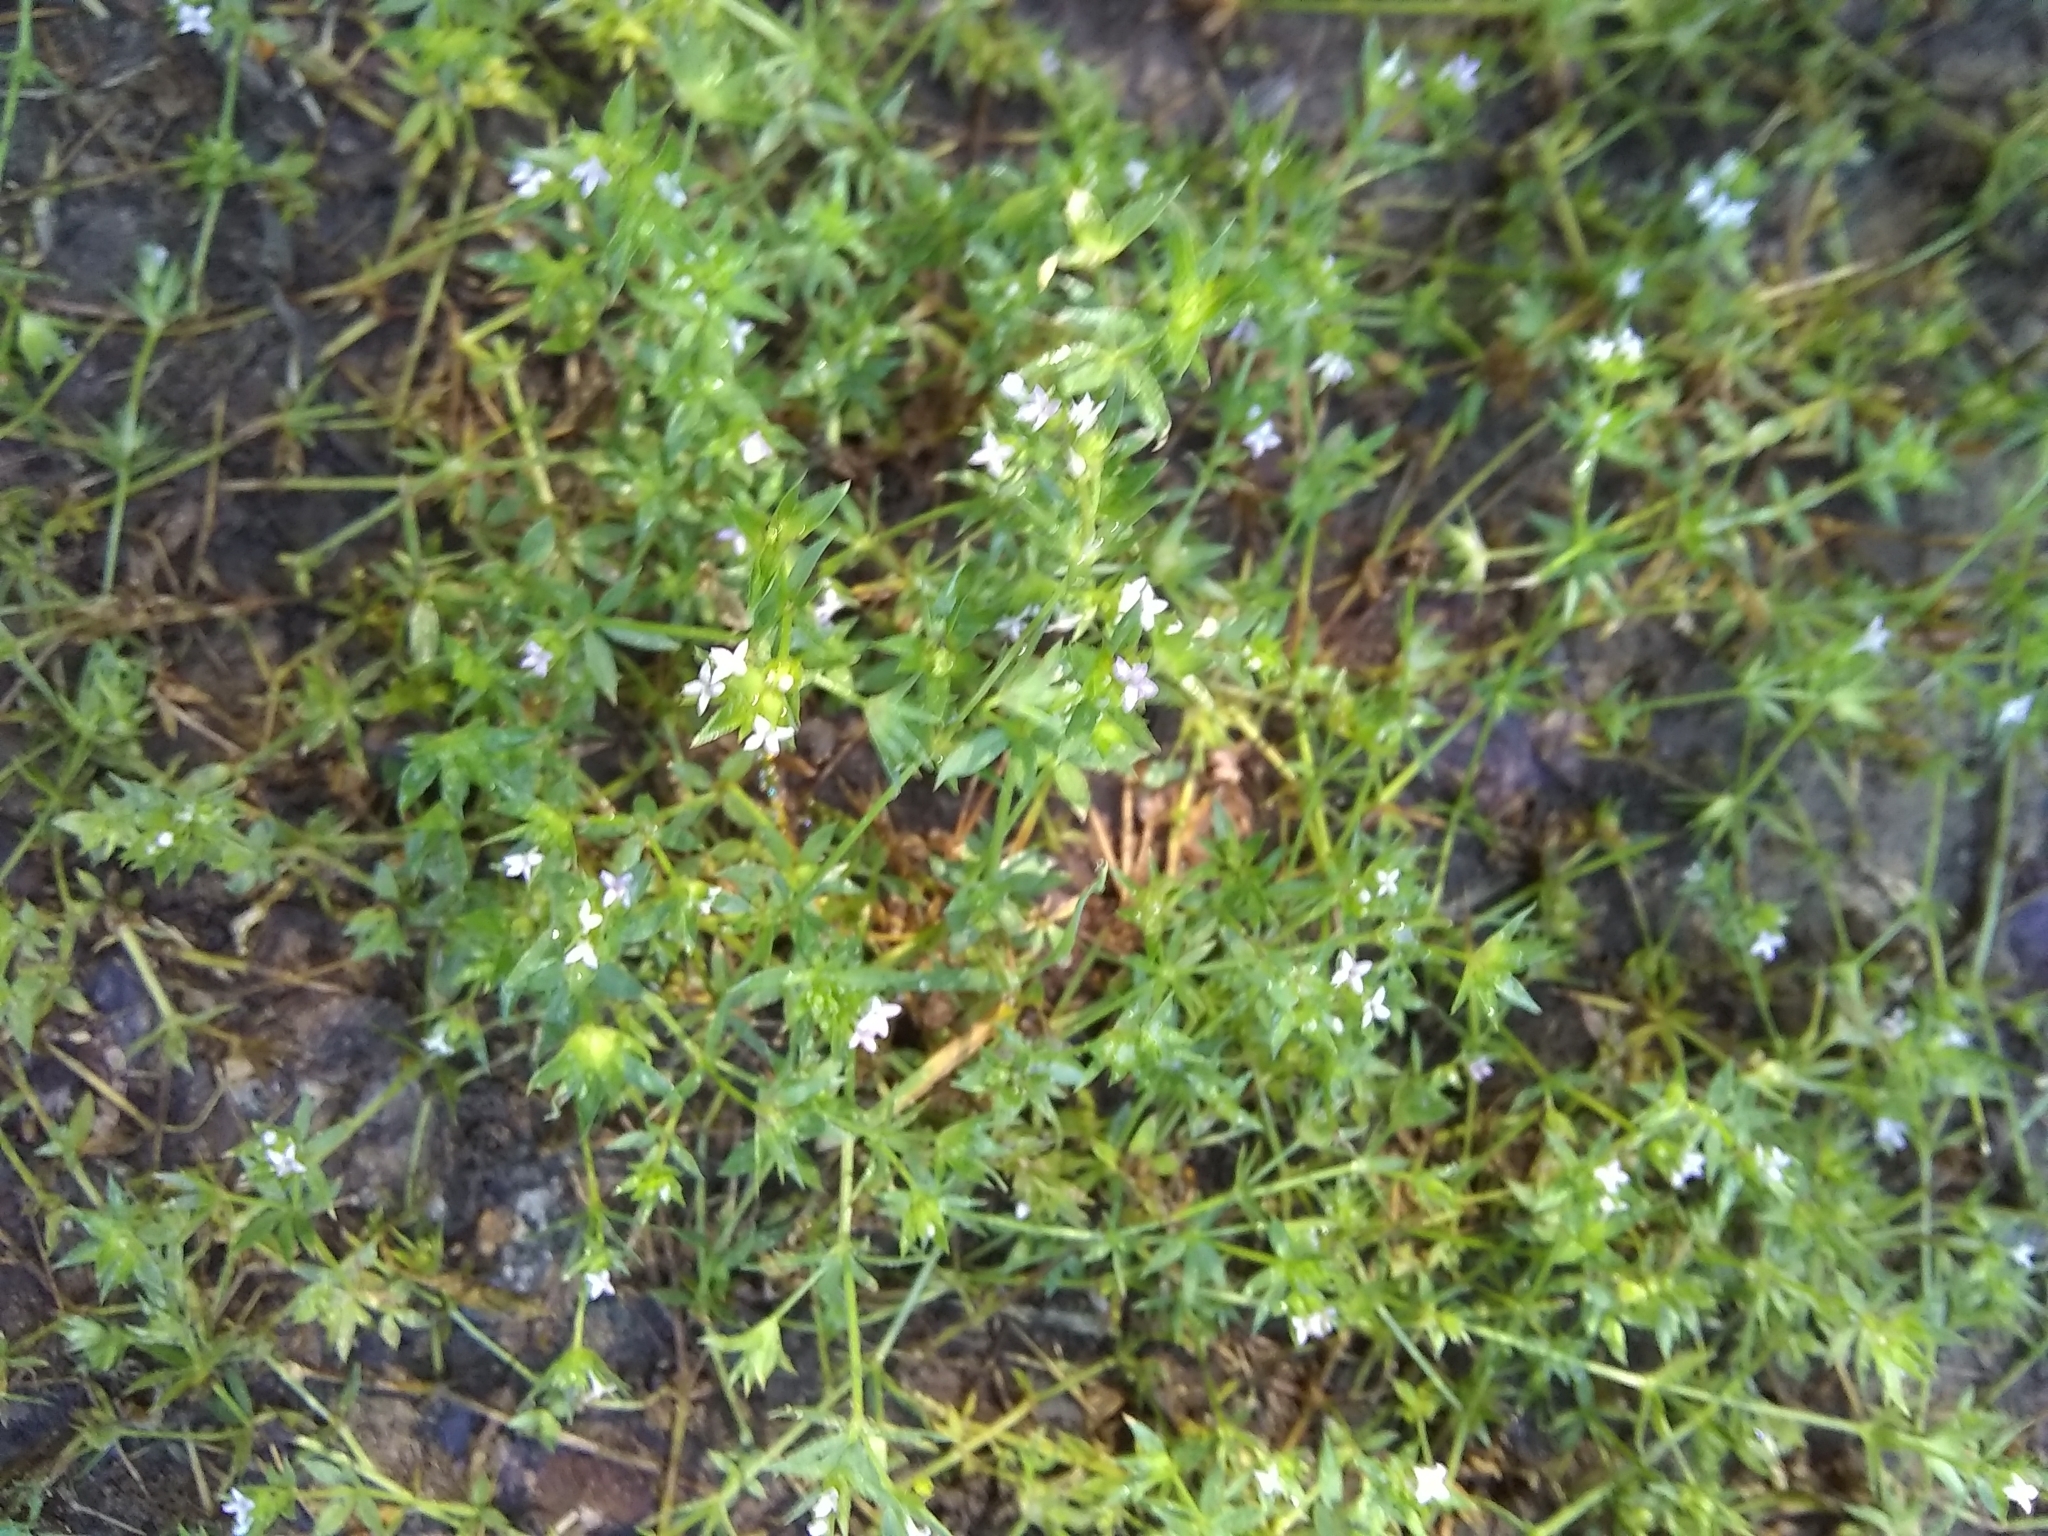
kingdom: Plantae
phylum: Tracheophyta
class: Magnoliopsida
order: Gentianales
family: Rubiaceae
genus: Sherardia
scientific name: Sherardia arvensis
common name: Field madder
